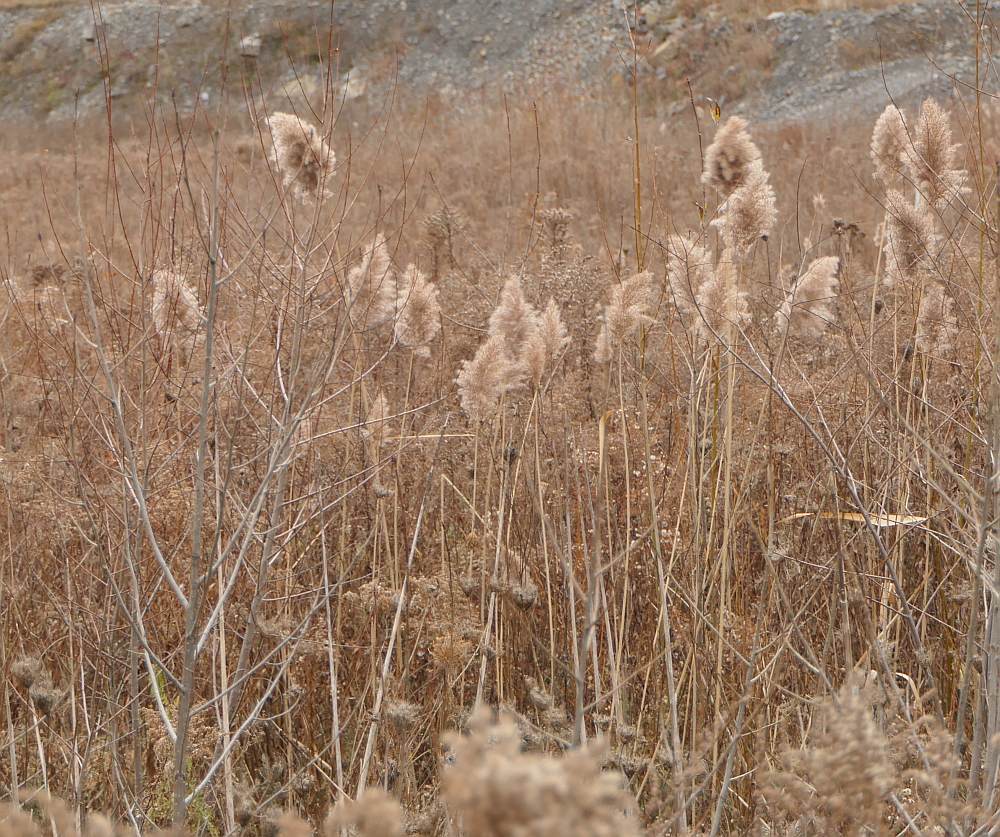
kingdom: Plantae
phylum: Tracheophyta
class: Liliopsida
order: Poales
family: Poaceae
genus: Phragmites
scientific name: Phragmites australis
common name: Common reed
